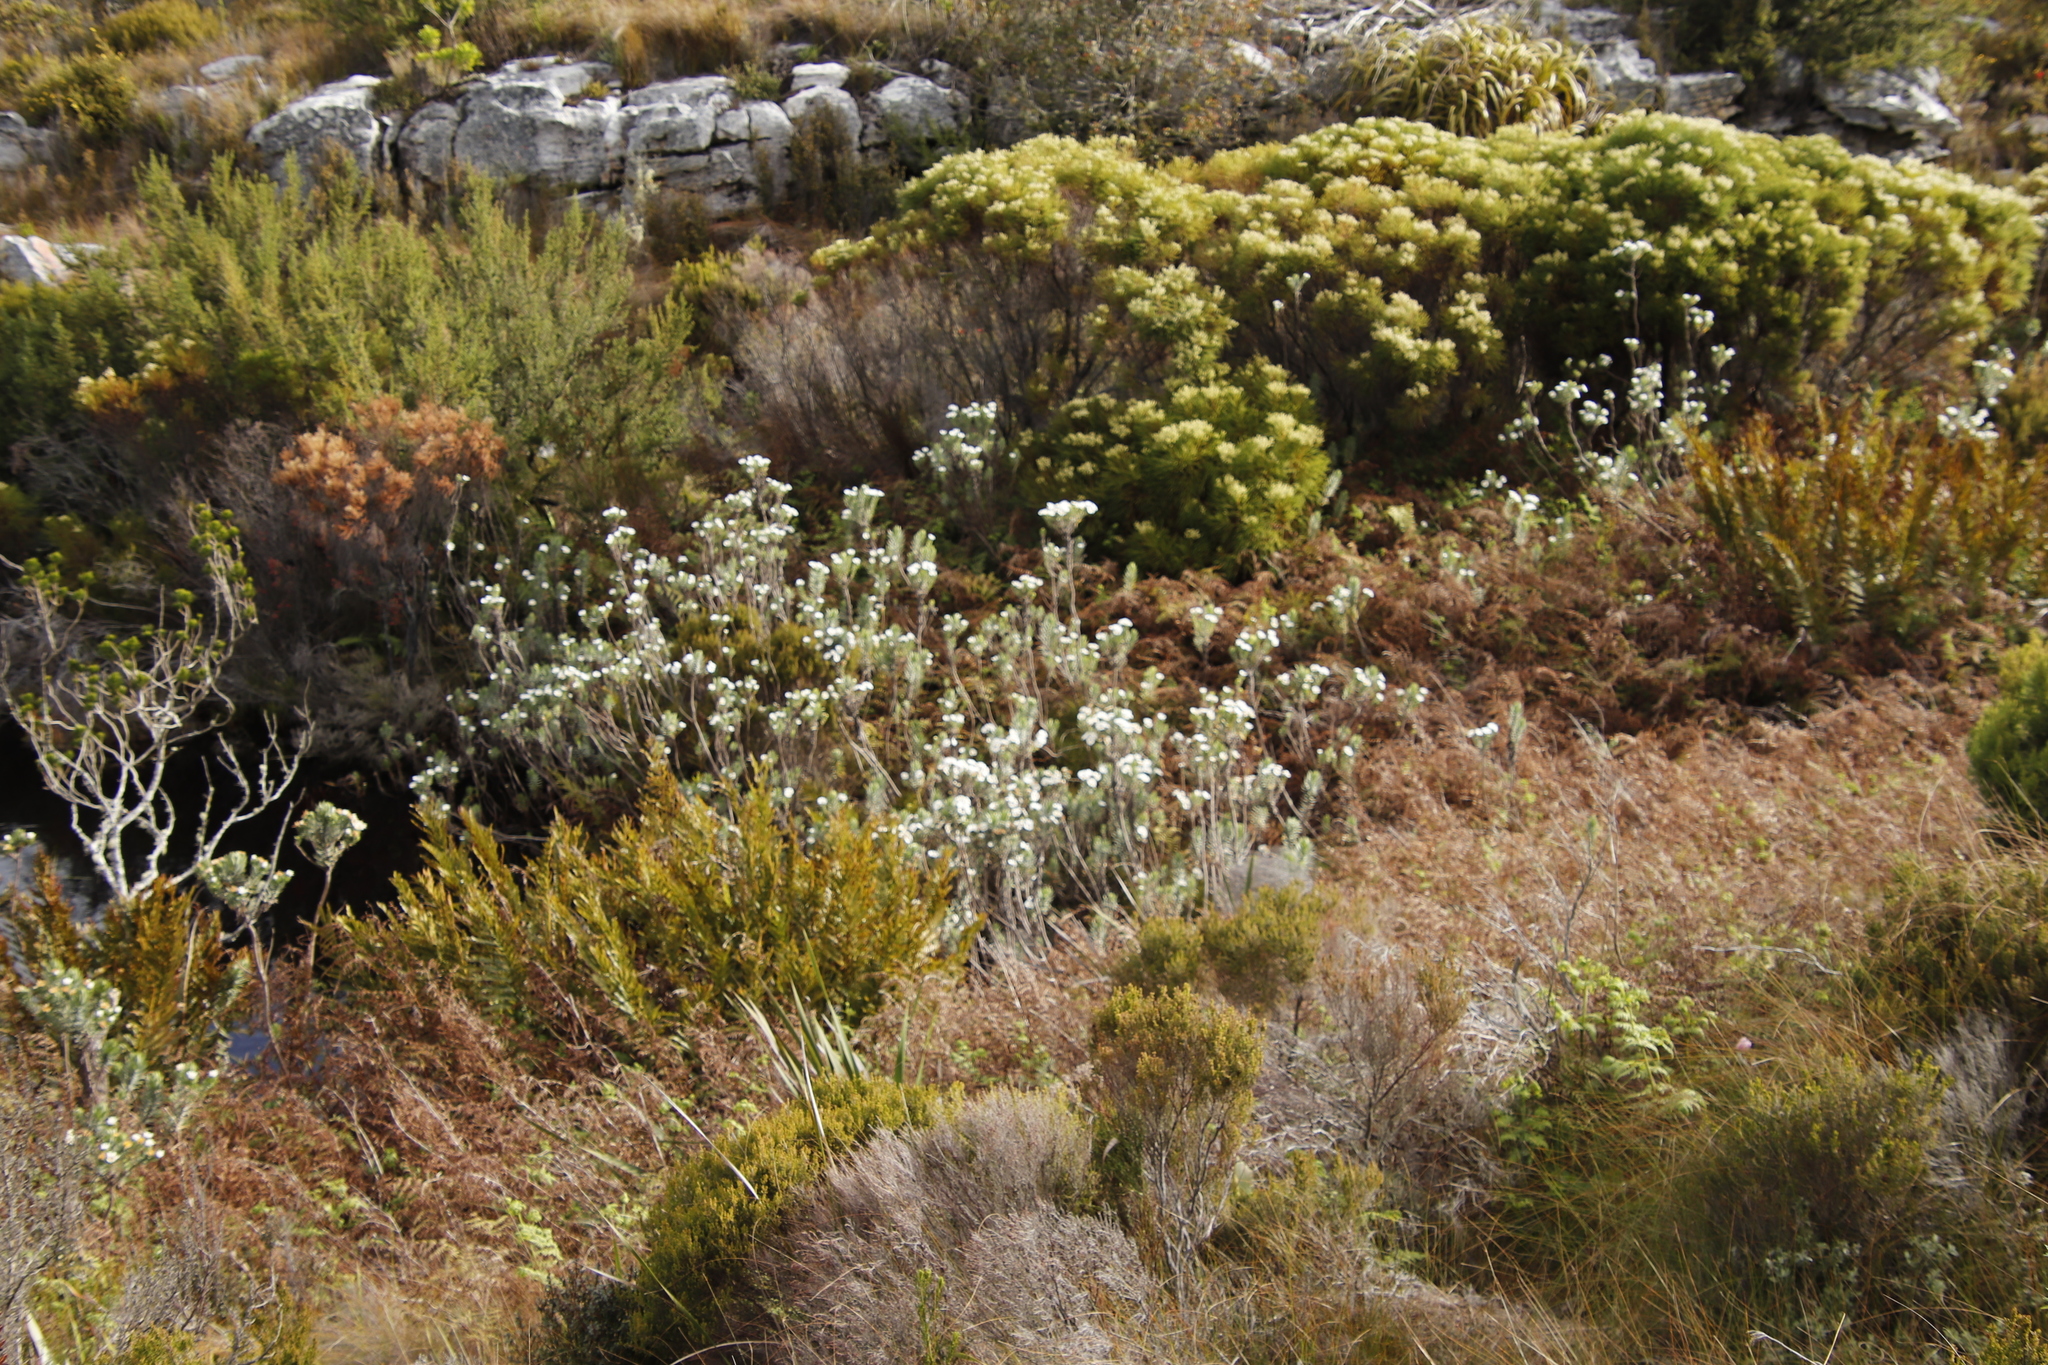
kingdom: Plantae
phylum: Tracheophyta
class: Magnoliopsida
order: Asterales
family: Asteraceae
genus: Osmitopsis
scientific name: Osmitopsis asteriscoides
